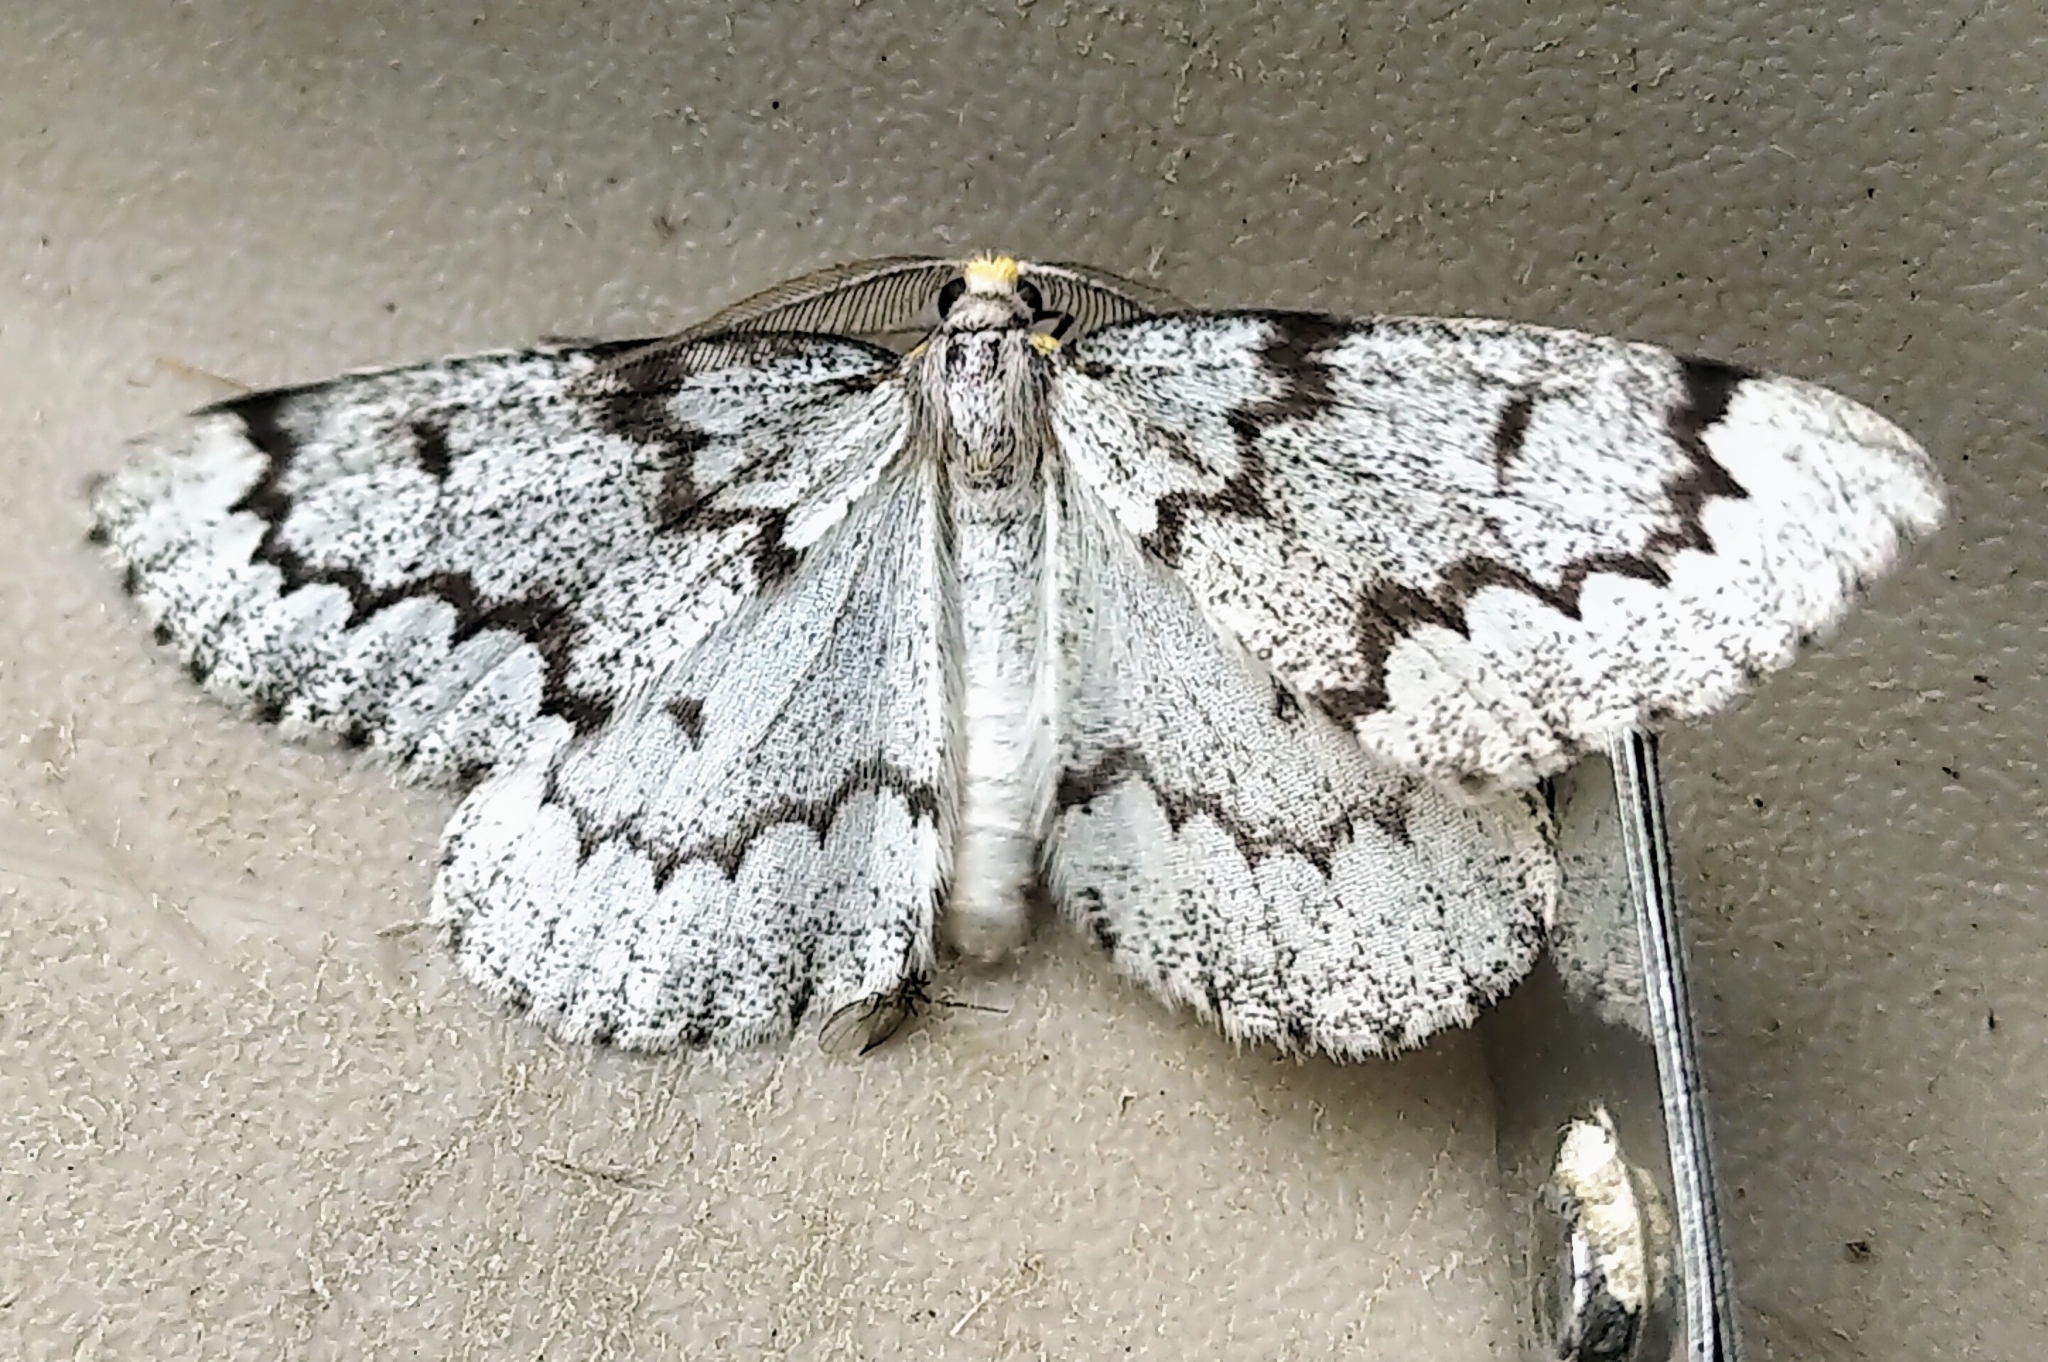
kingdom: Animalia
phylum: Arthropoda
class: Insecta
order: Lepidoptera
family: Geometridae
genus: Nepytia
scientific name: Nepytia canosaria
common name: False hemlock looper
